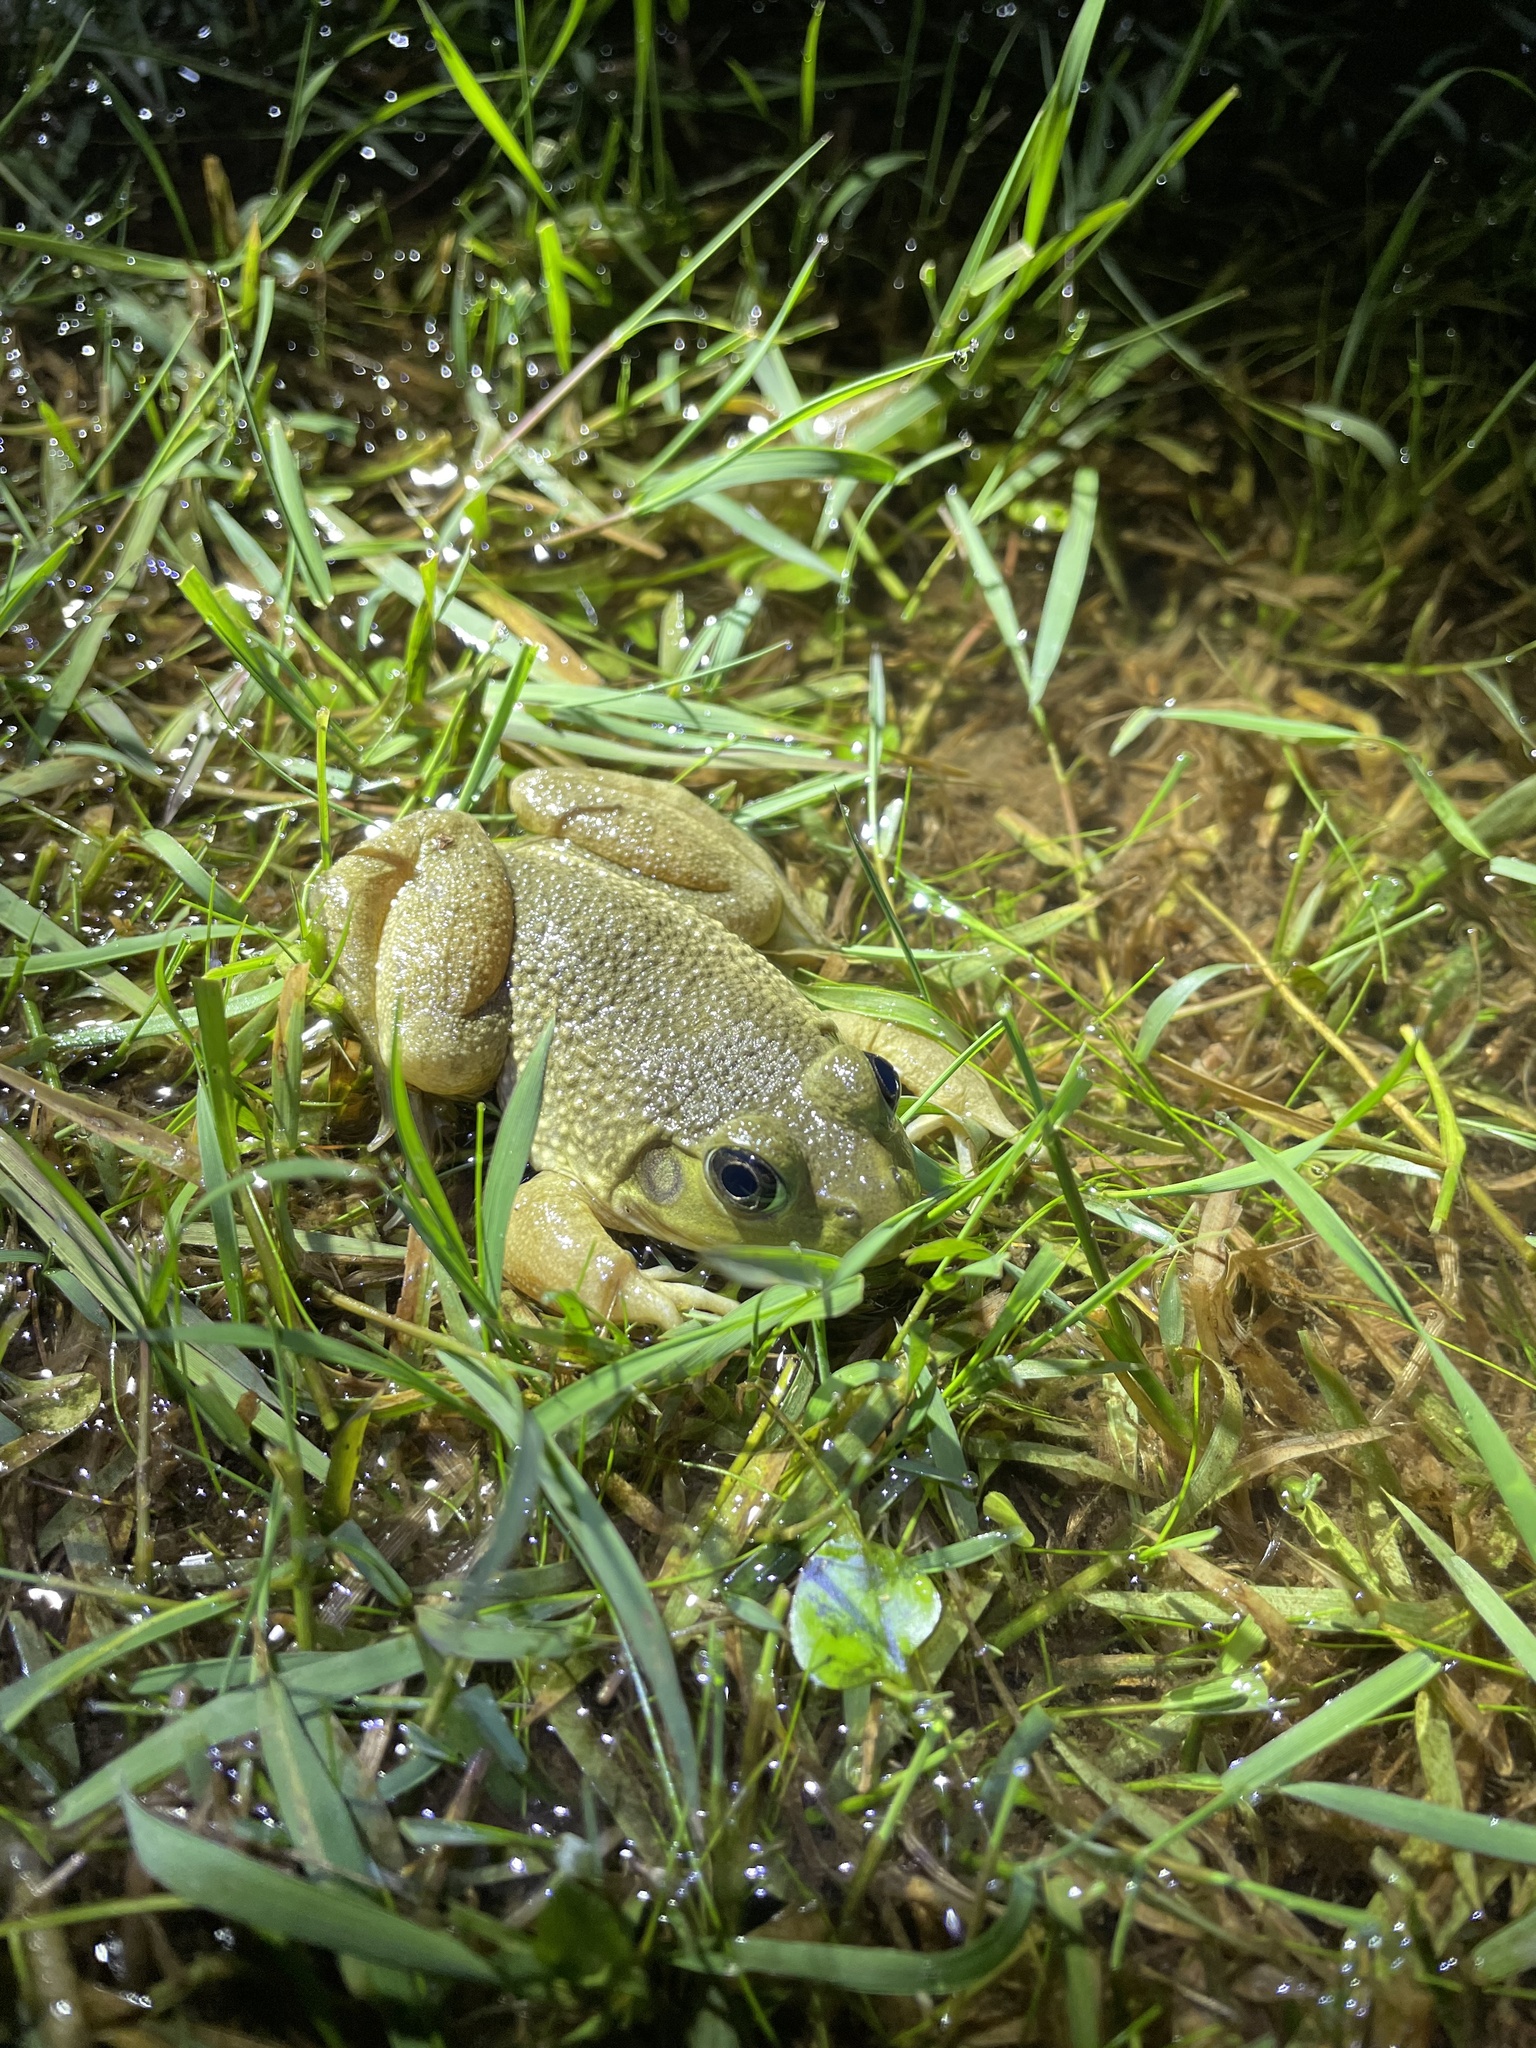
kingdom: Animalia
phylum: Chordata
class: Amphibia
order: Anura
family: Ranidae
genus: Lithobates
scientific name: Lithobates catesbeianus
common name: American bullfrog
